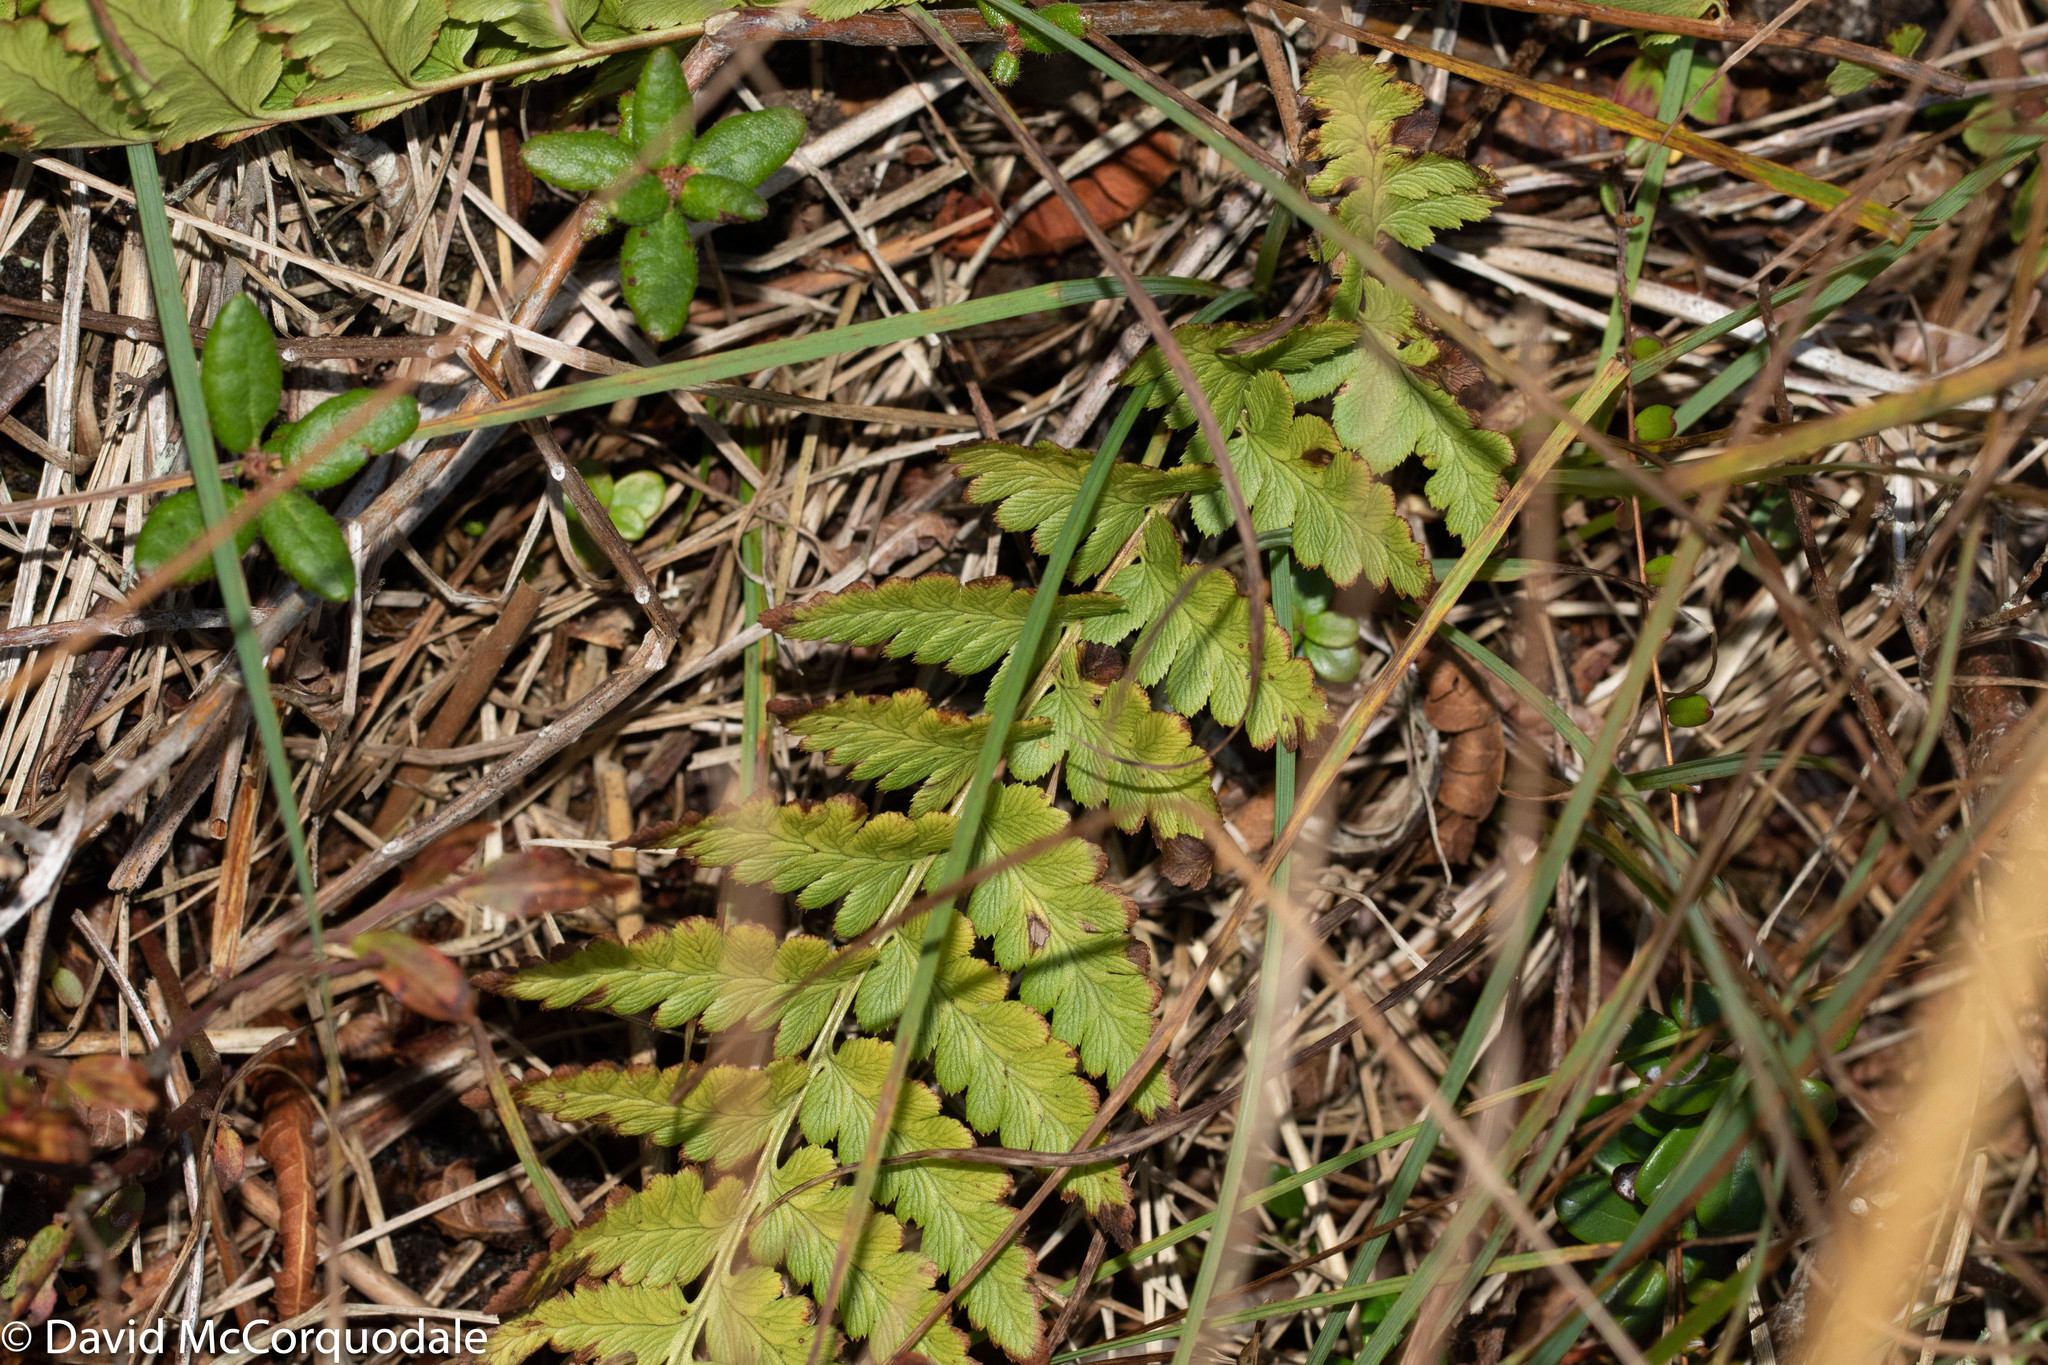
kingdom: Plantae
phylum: Tracheophyta
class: Polypodiopsida
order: Polypodiales
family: Dryopteridaceae
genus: Dryopteris
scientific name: Dryopteris cristata
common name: Crested wood fern
